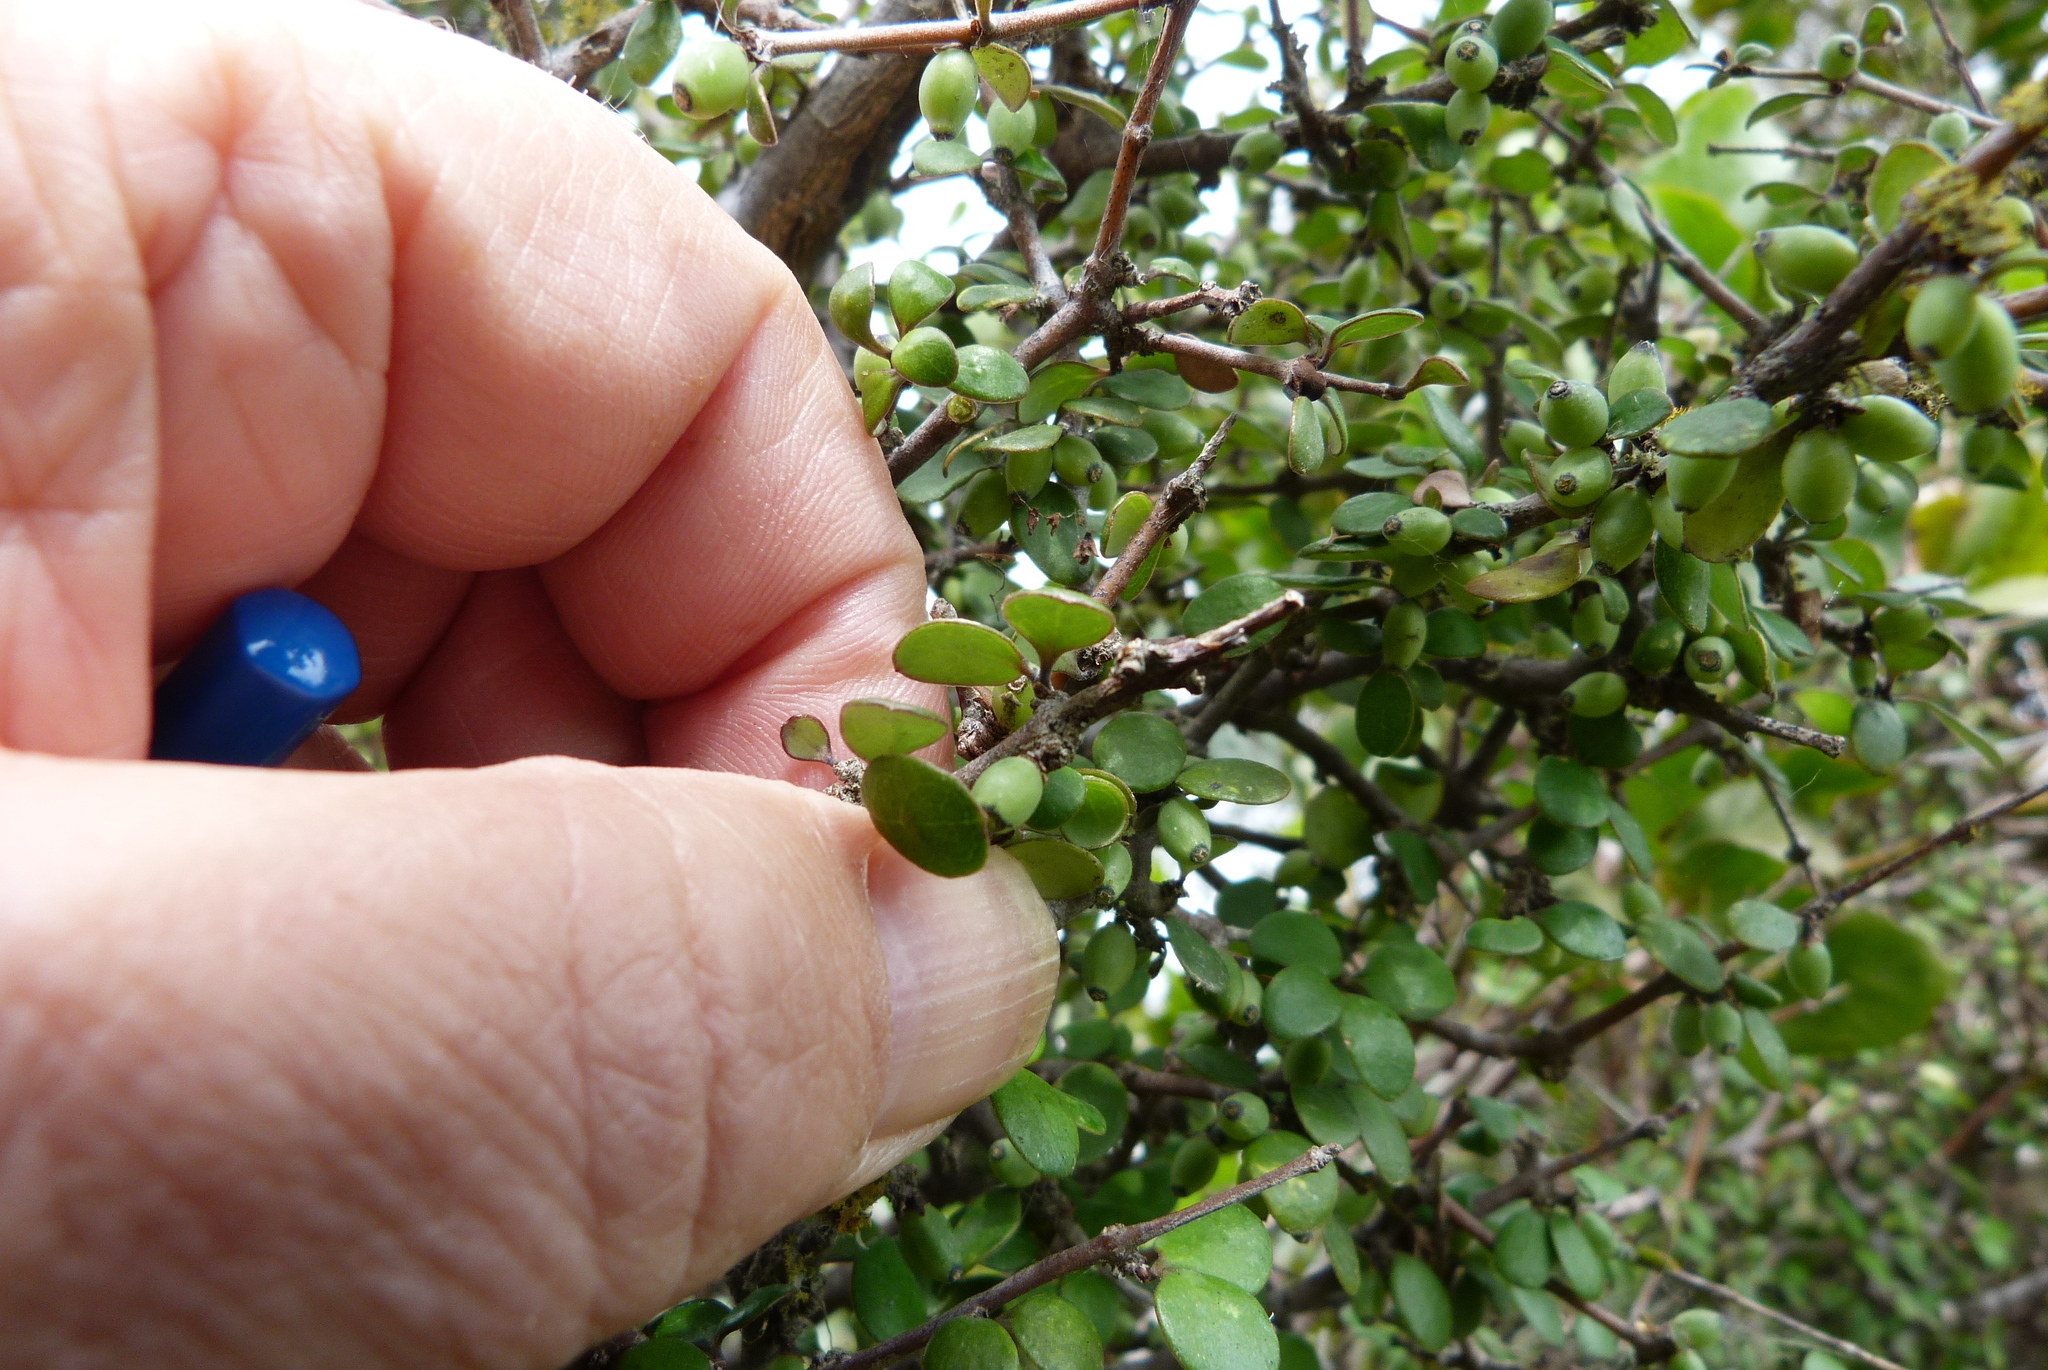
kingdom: Plantae
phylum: Tracheophyta
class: Magnoliopsida
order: Gentianales
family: Rubiaceae
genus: Coprosma
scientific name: Coprosma crassifolia
